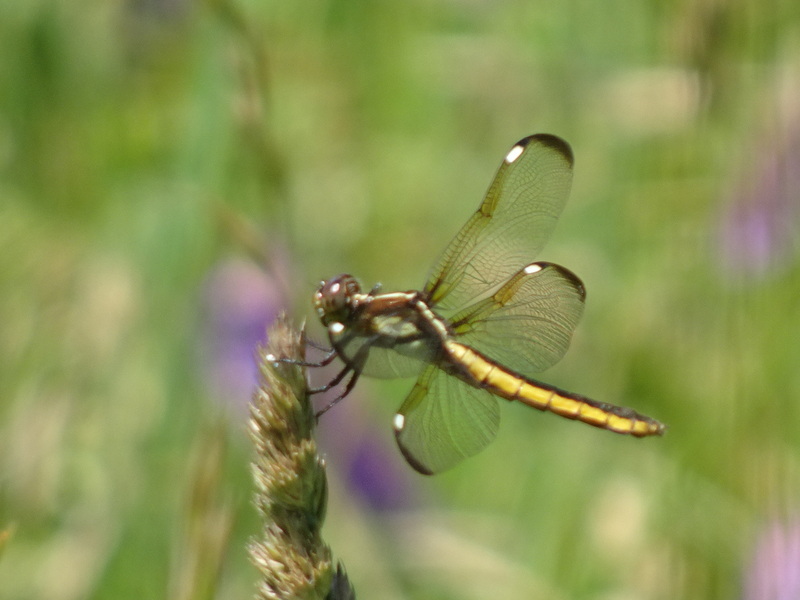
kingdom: Animalia
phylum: Arthropoda
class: Insecta
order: Odonata
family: Libellulidae
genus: Libellula
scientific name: Libellula cyanea
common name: Spangled skimmer
